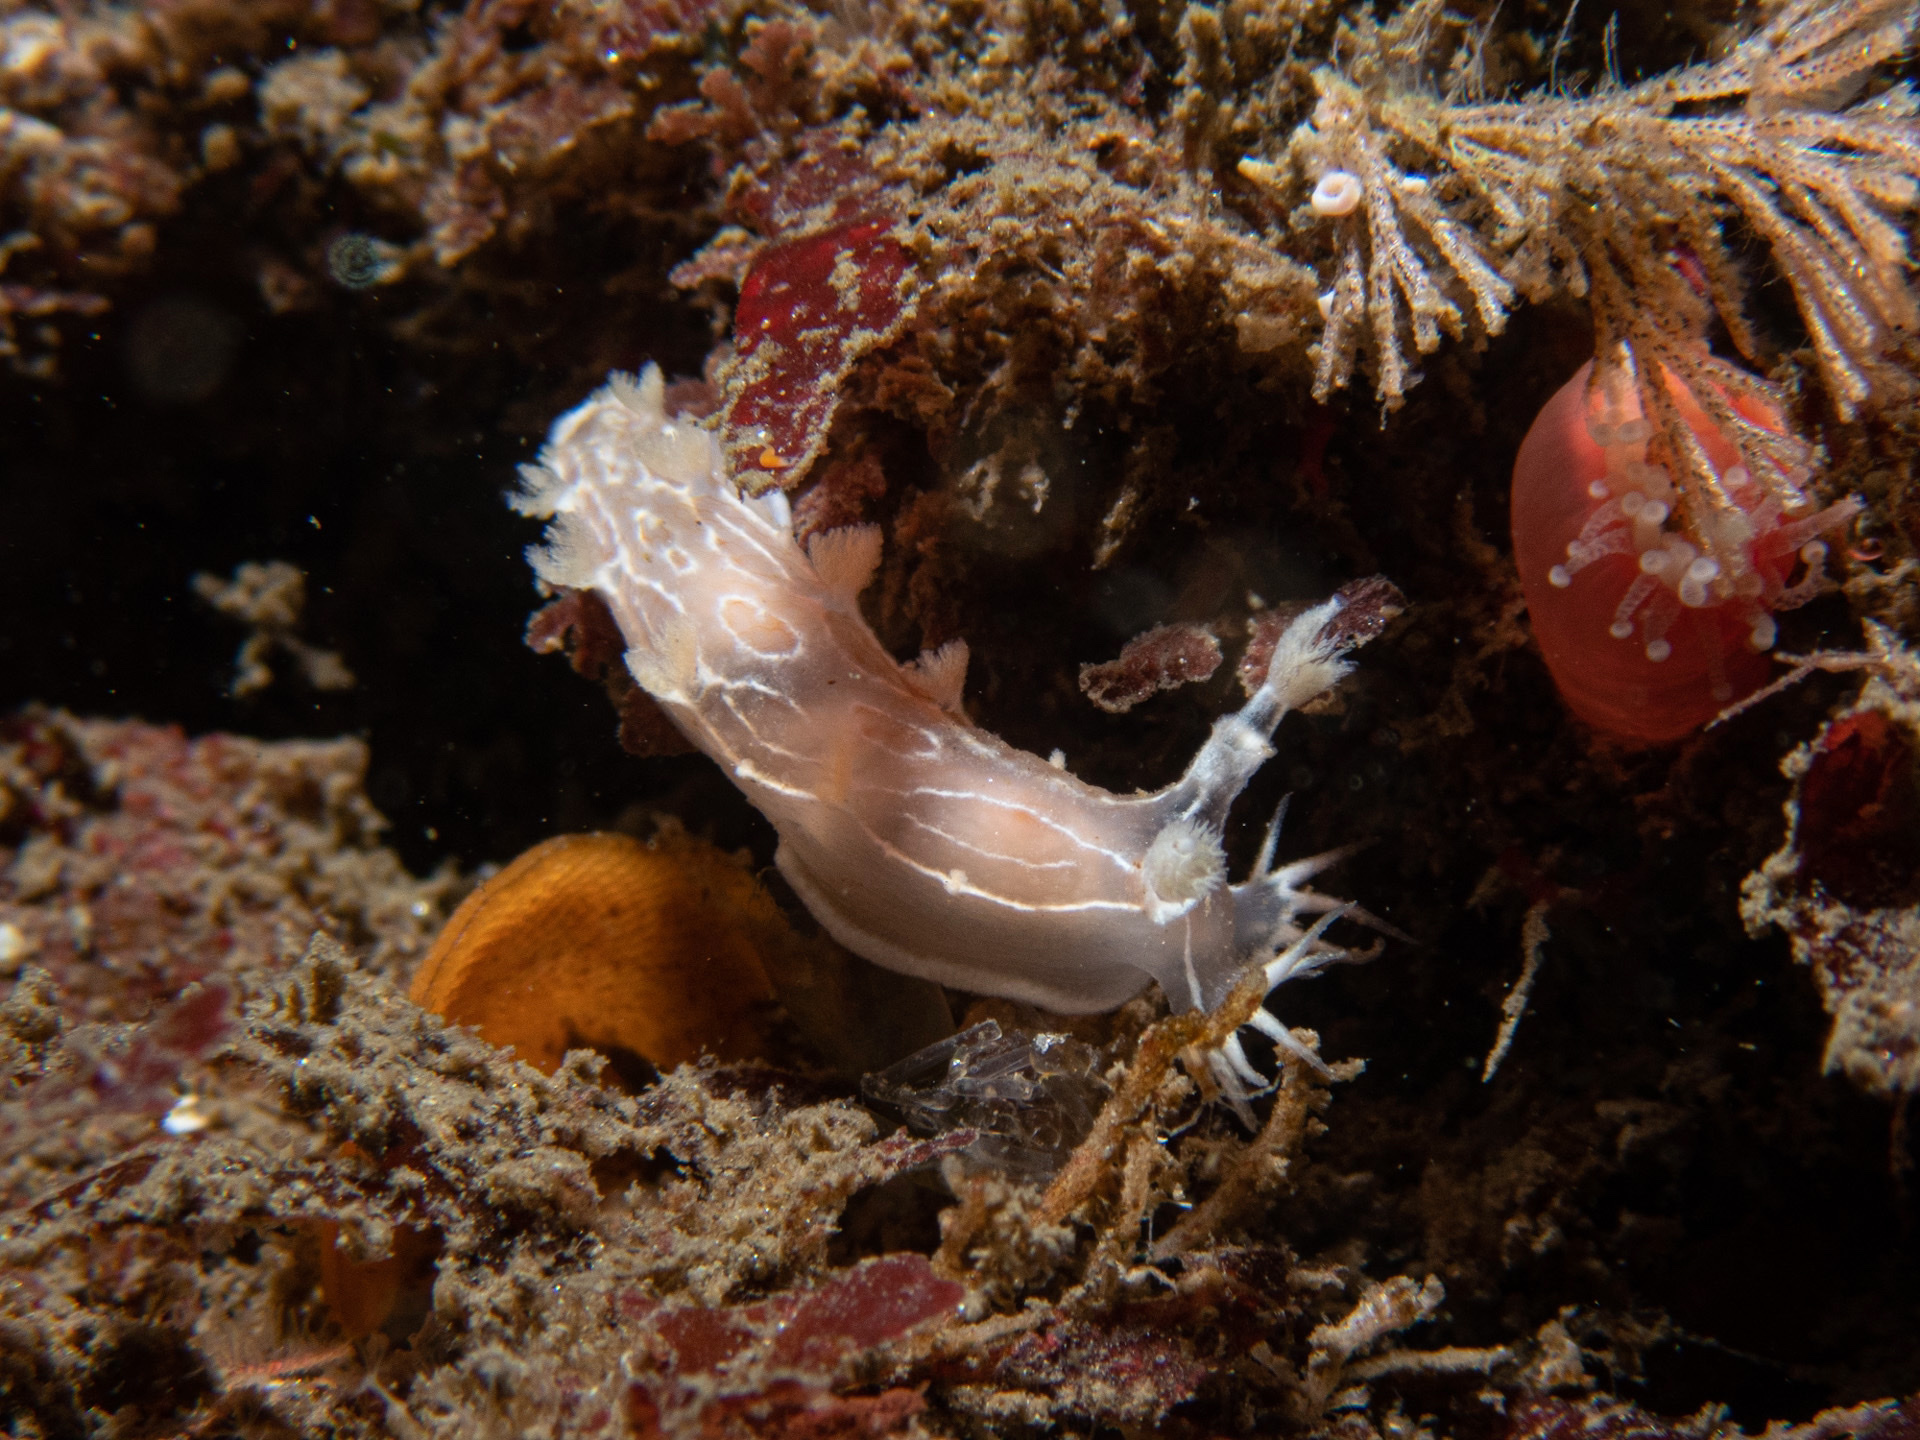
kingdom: Animalia
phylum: Mollusca
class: Gastropoda
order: Nudibranchia
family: Tritoniidae
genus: Tritonia
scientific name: Tritonia festiva
